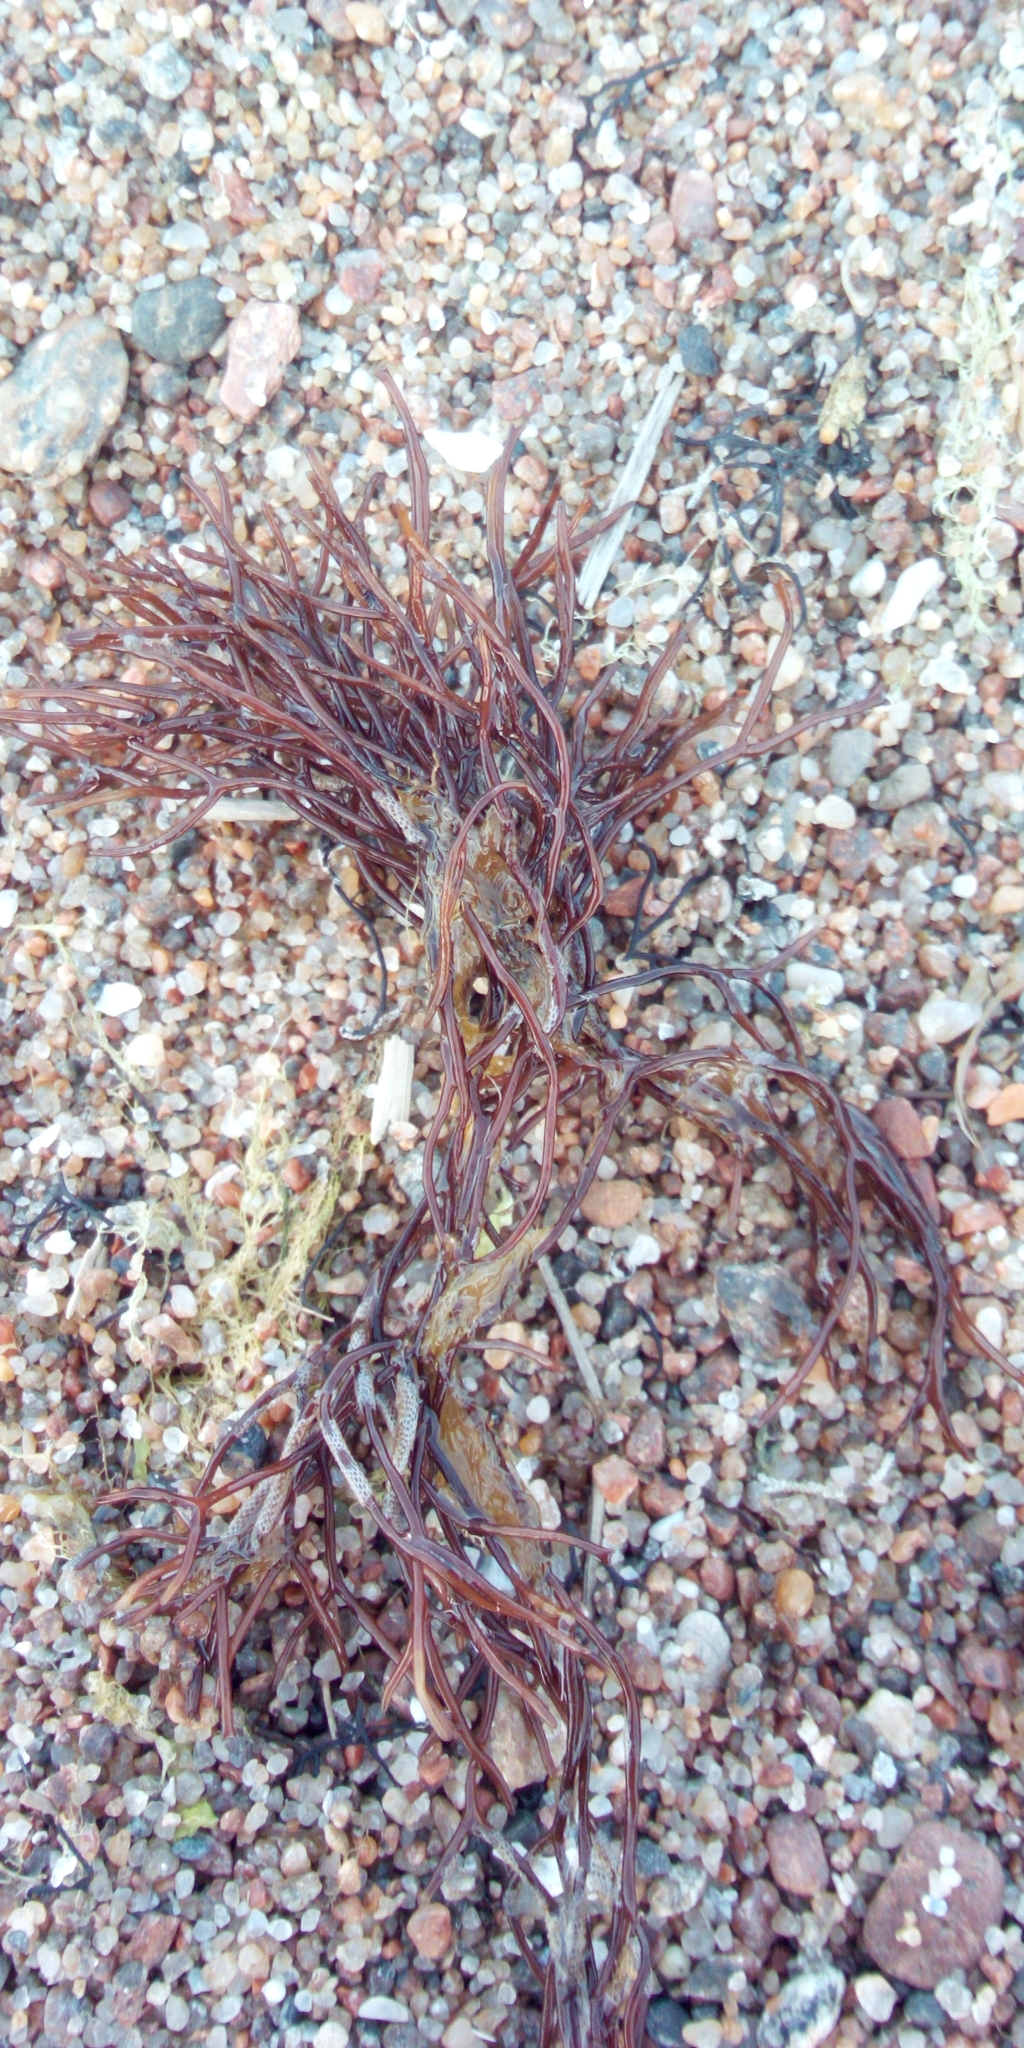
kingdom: Plantae
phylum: Rhodophyta
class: Florideophyceae
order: Gigartinales
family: Furcellariaceae
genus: Furcellaria
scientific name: Furcellaria lumbricalis
